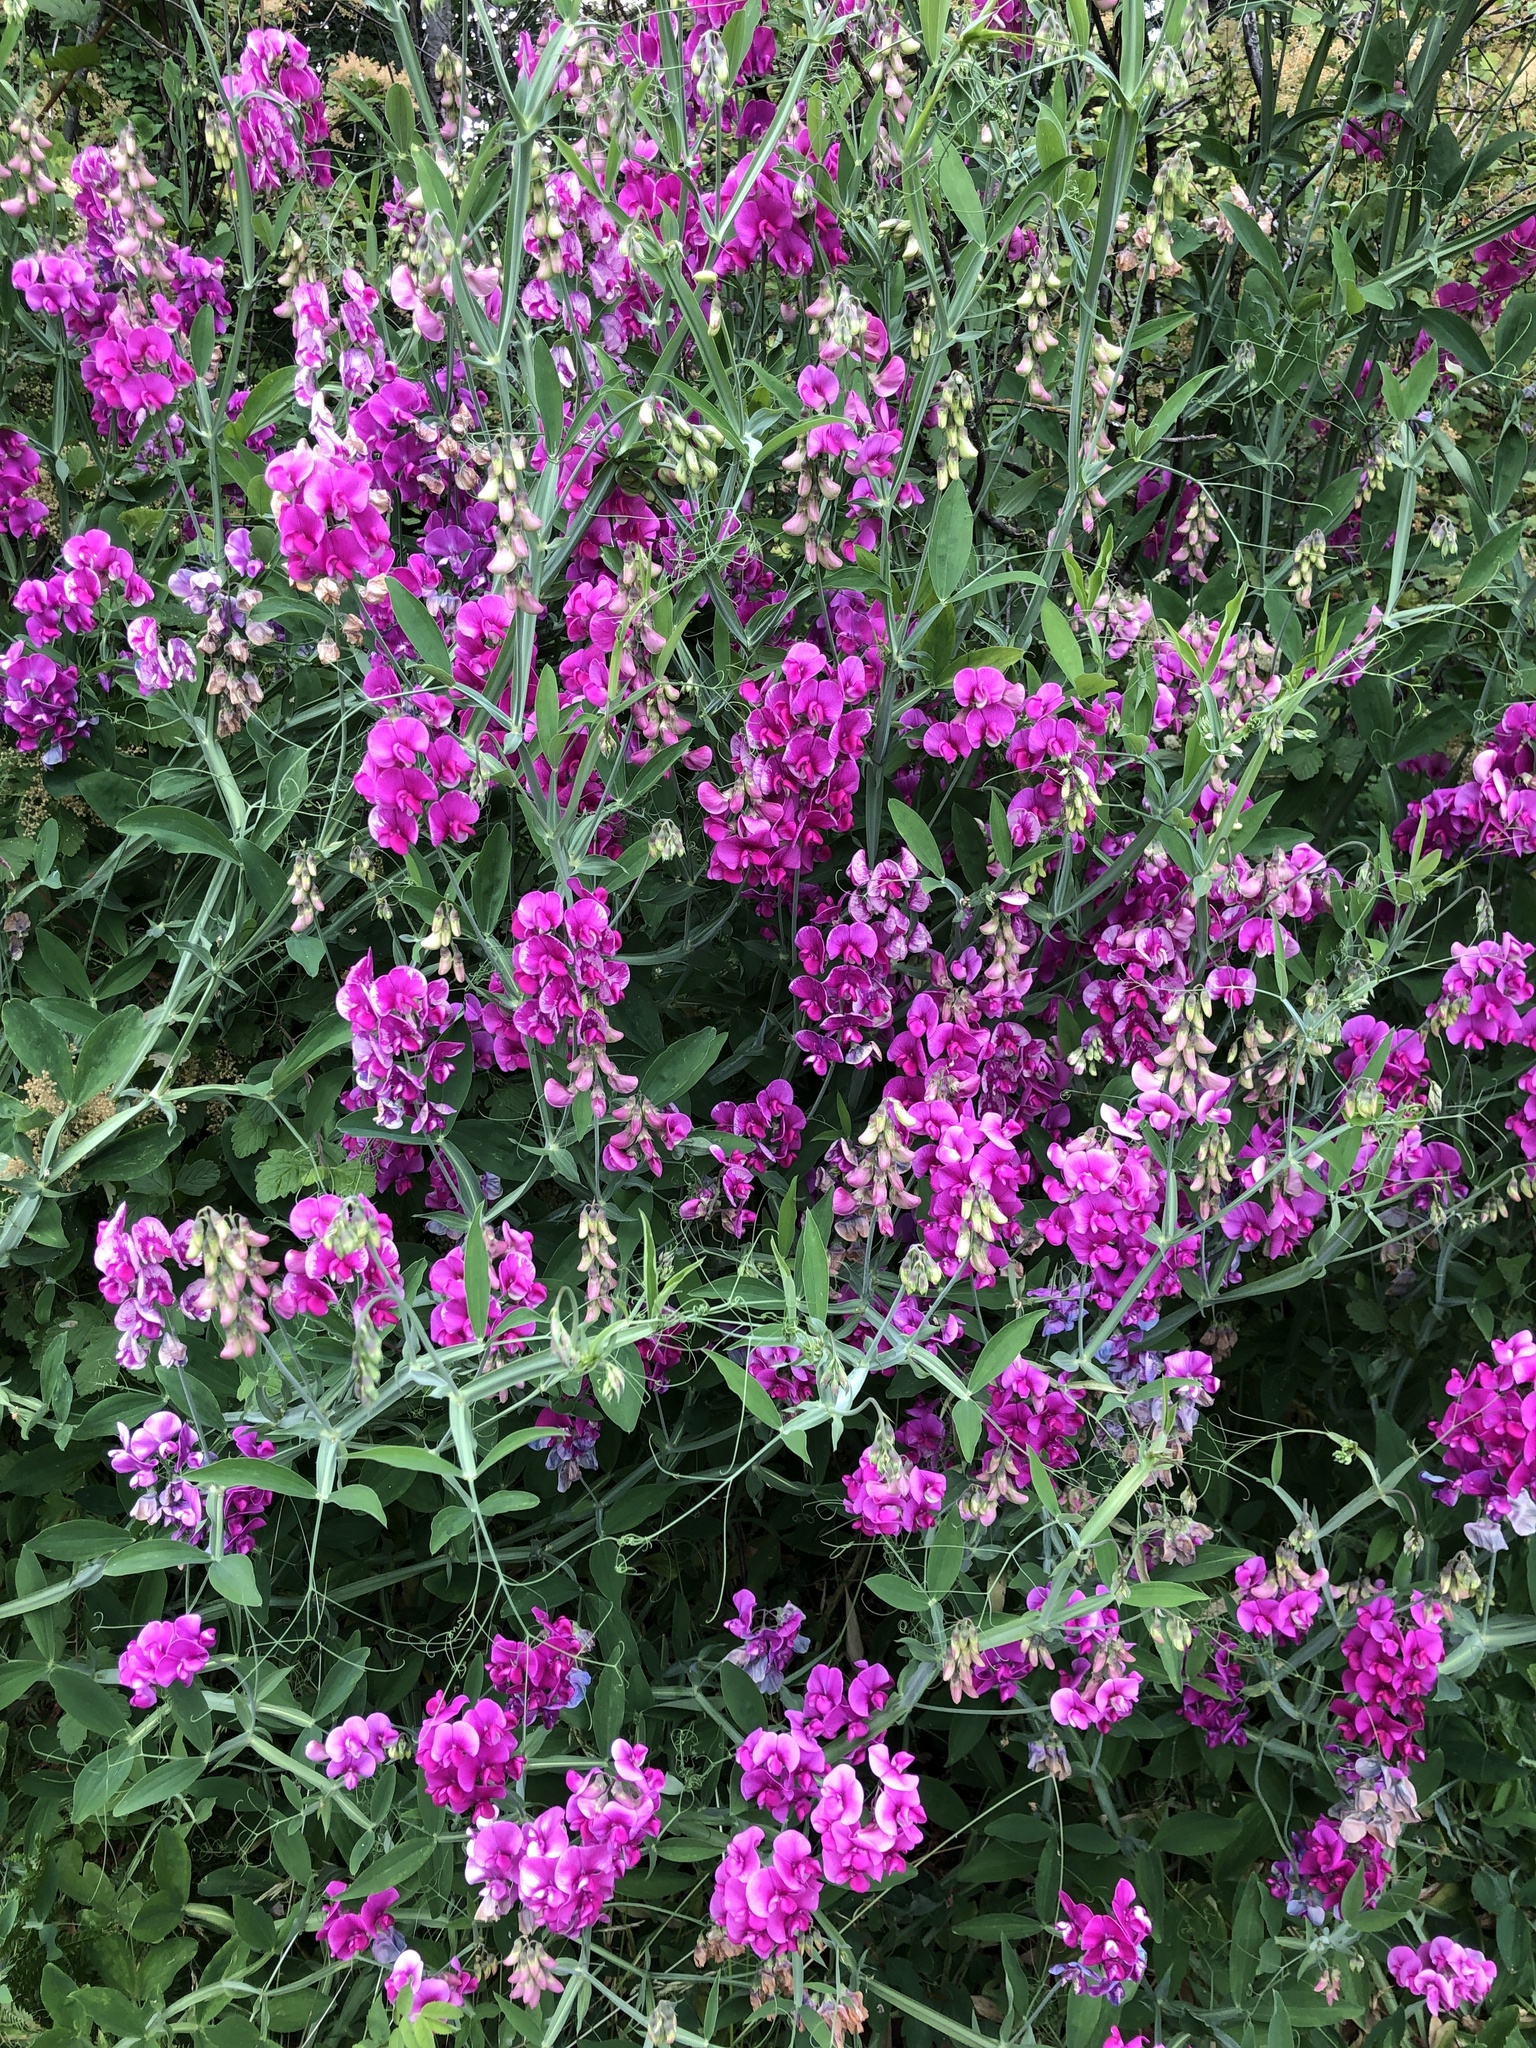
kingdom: Plantae
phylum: Tracheophyta
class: Magnoliopsida
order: Fabales
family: Fabaceae
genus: Lathyrus
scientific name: Lathyrus latifolius
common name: Perennial pea
